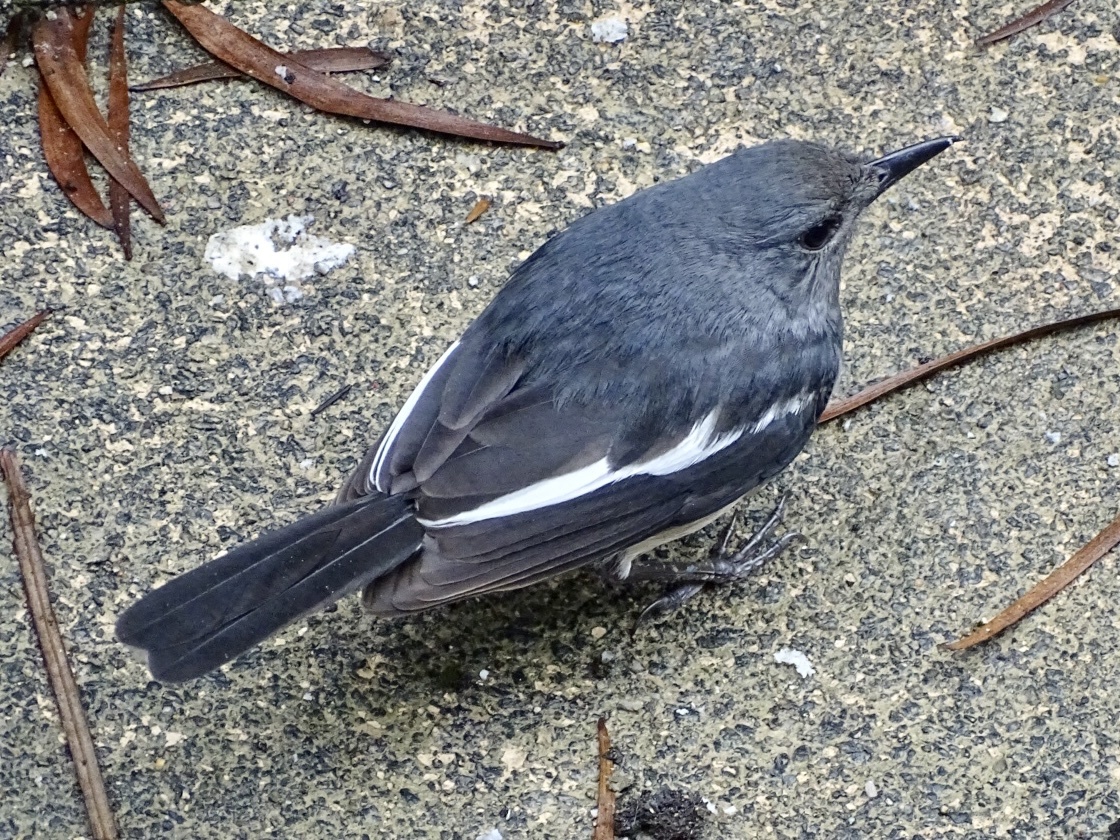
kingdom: Animalia
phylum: Chordata
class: Aves
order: Passeriformes
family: Muscicapidae
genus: Copsychus
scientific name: Copsychus saularis
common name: Oriental magpie-robin
